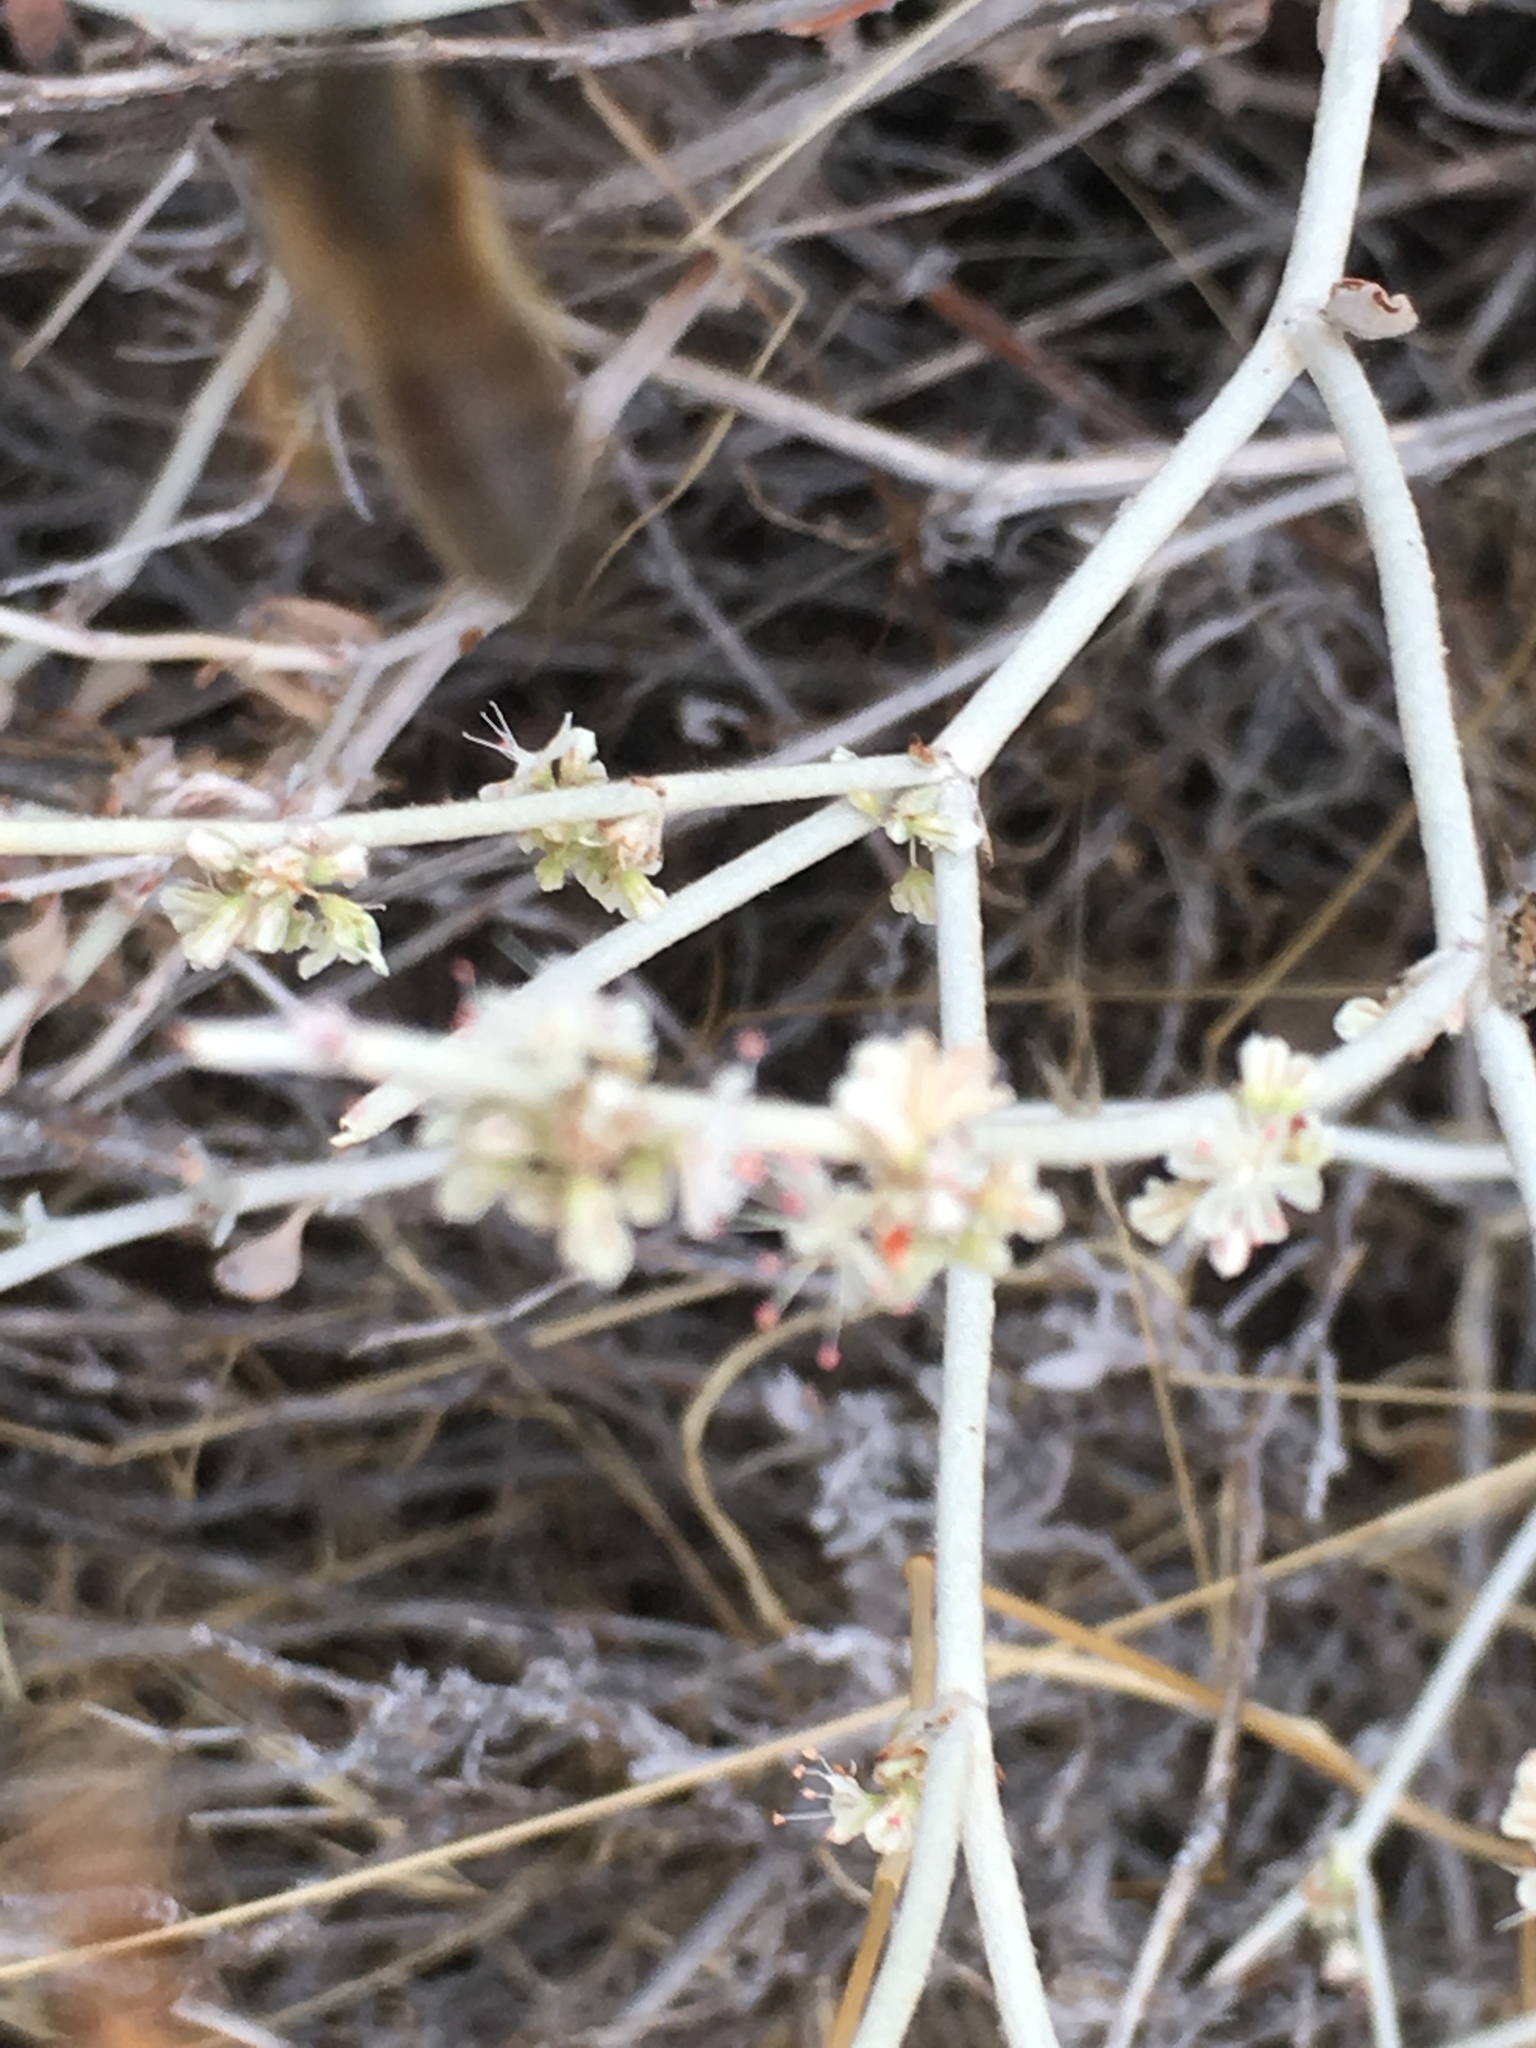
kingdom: Animalia
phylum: Arthropoda
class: Insecta
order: Hymenoptera
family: Apidae
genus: Apis
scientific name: Apis mellifera
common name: Honey bee
